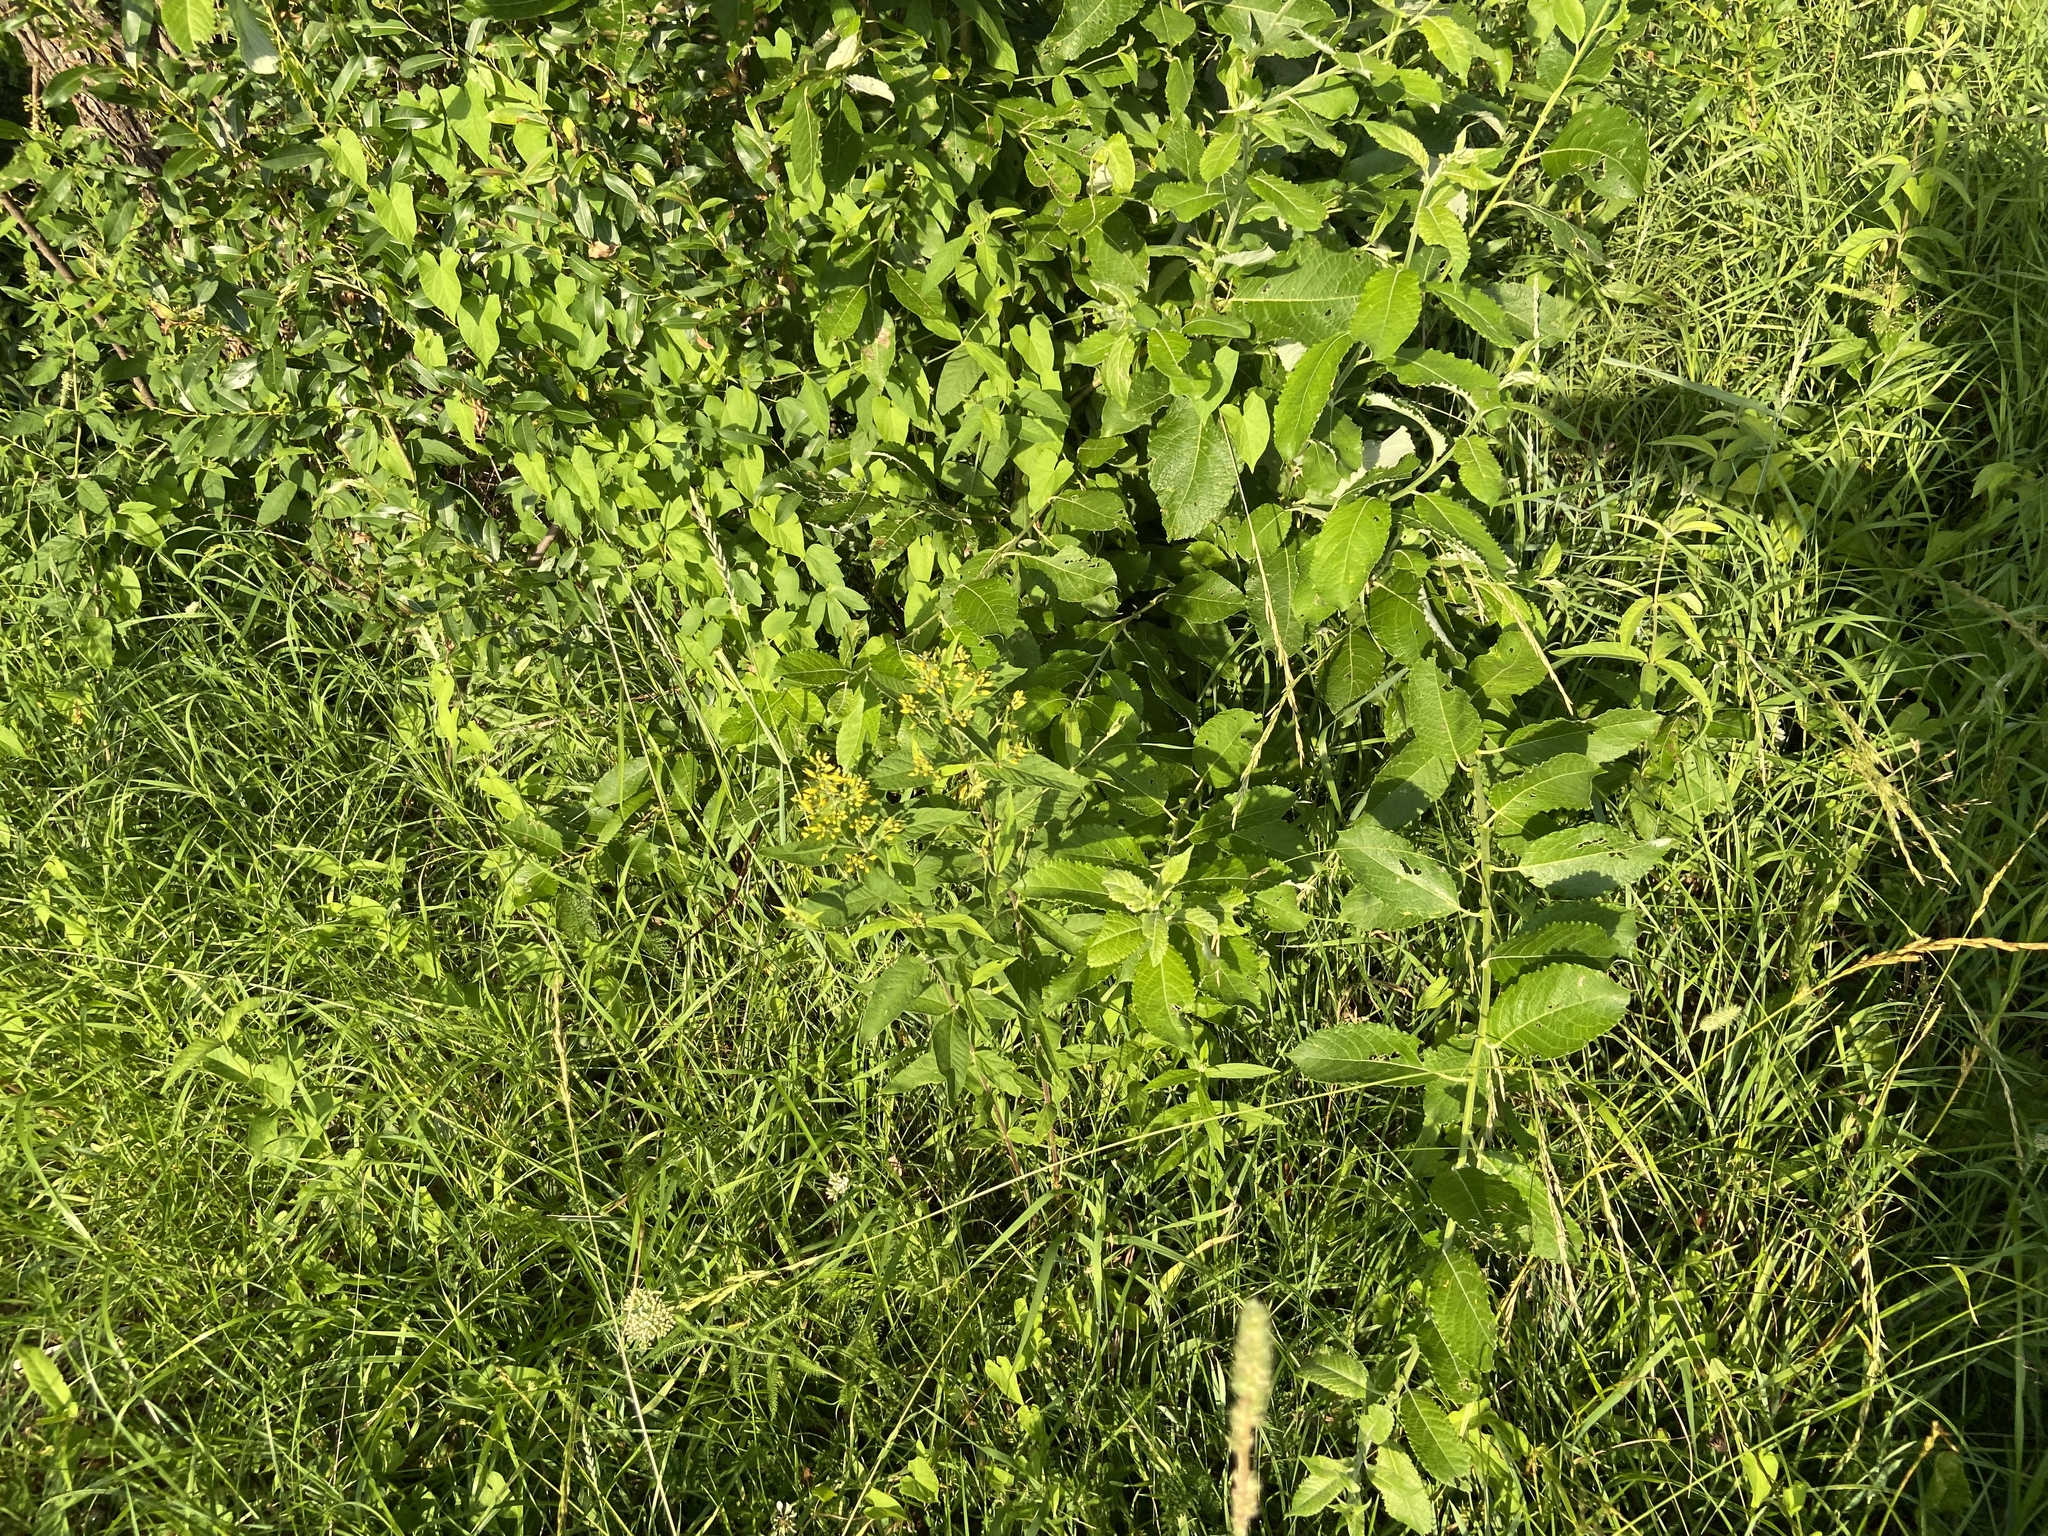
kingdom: Plantae
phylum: Tracheophyta
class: Magnoliopsida
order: Malpighiales
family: Salicaceae
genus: Salix
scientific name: Salix caprea
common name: Goat willow
